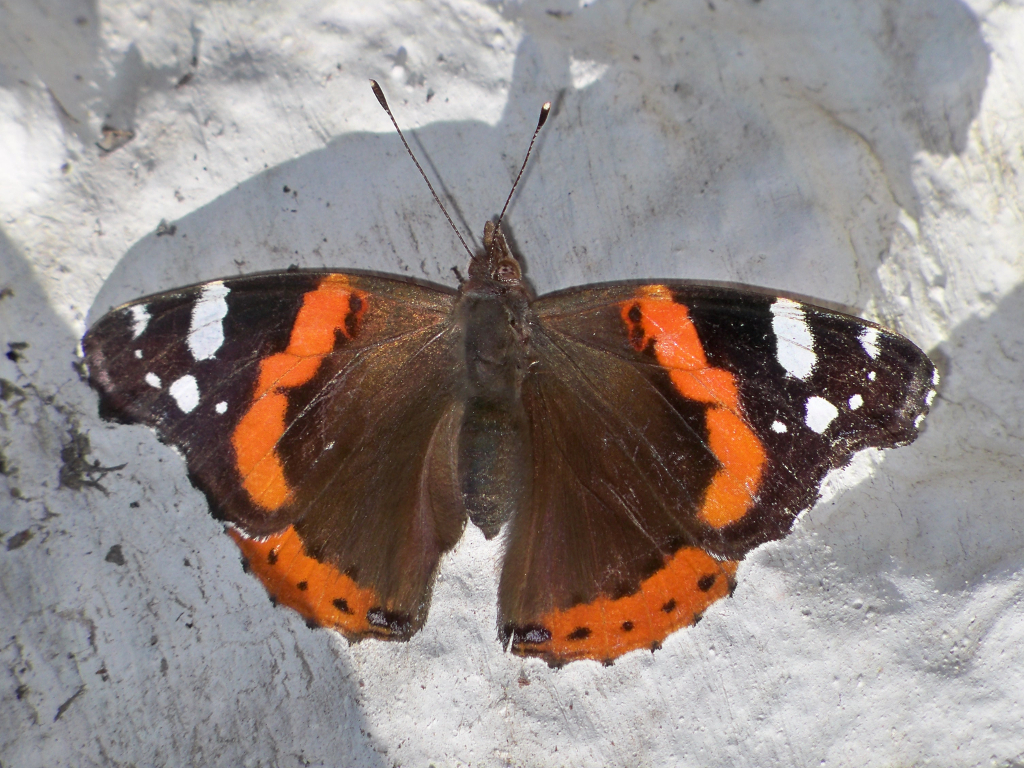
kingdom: Animalia
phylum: Arthropoda
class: Insecta
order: Lepidoptera
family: Nymphalidae
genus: Vanessa
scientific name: Vanessa atalanta
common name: Red admiral
